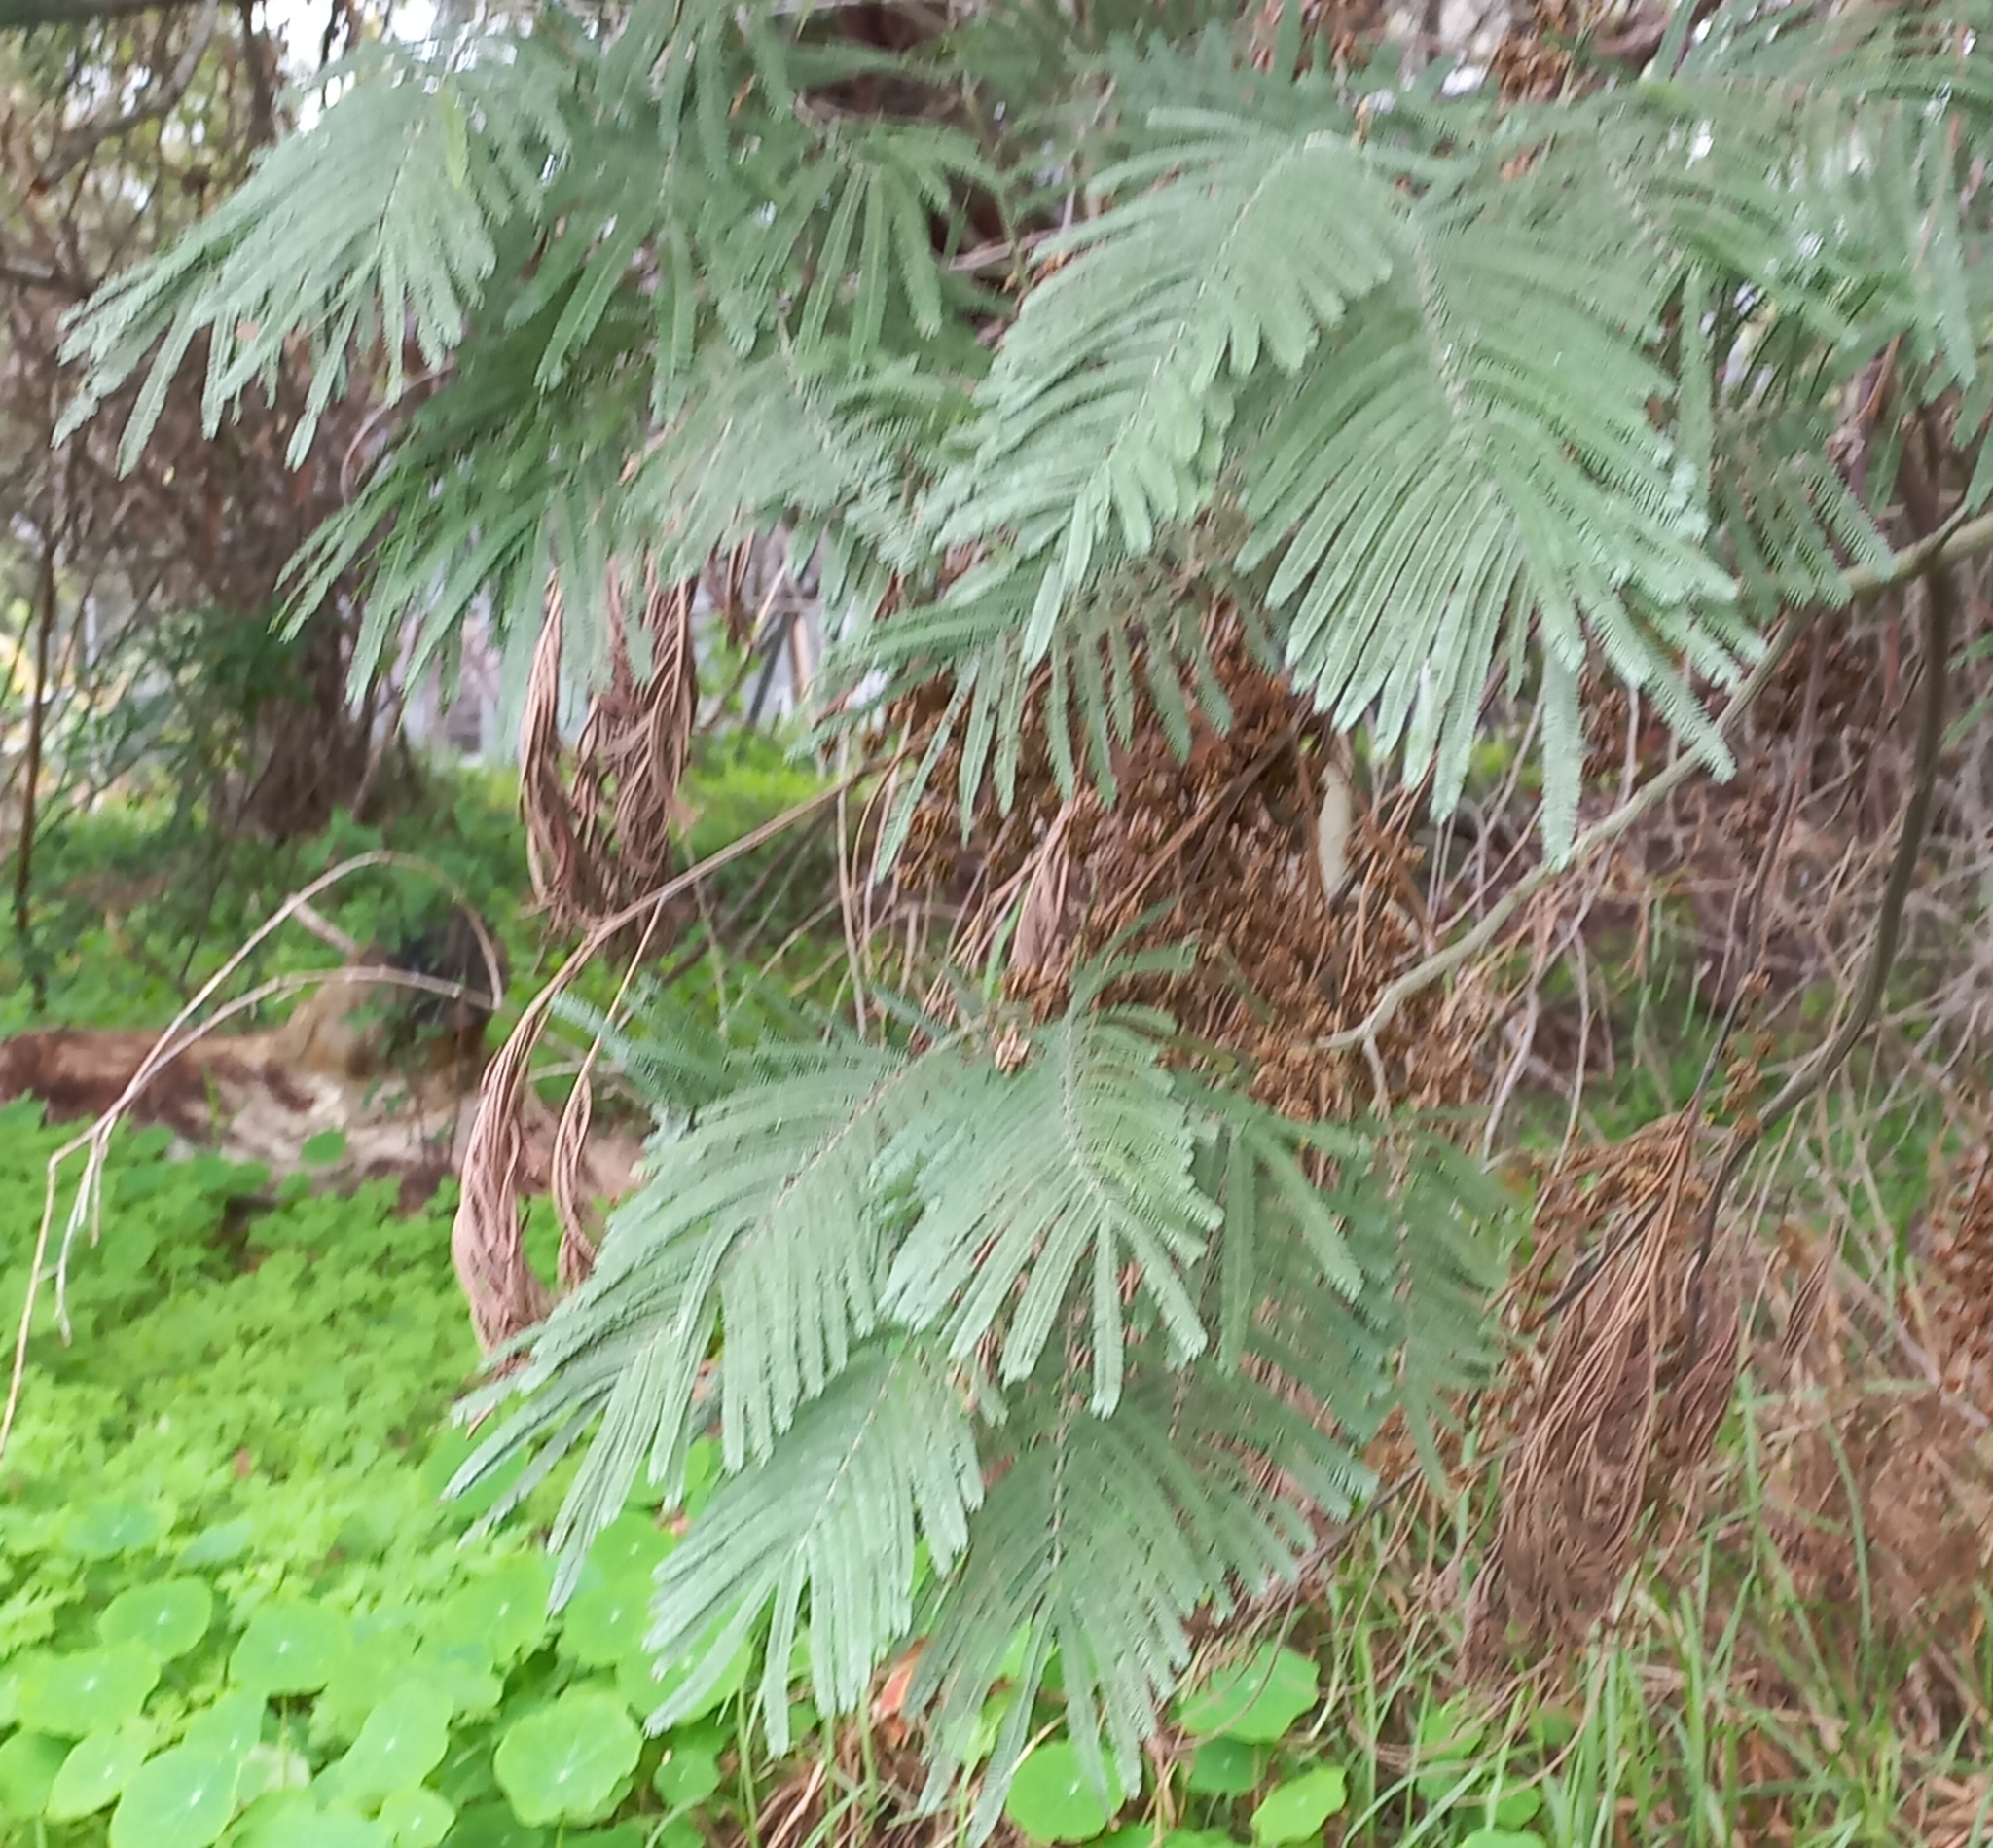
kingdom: Plantae
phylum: Tracheophyta
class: Magnoliopsida
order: Fabales
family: Fabaceae
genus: Acacia
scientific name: Acacia mearnsii
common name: Black wattle
